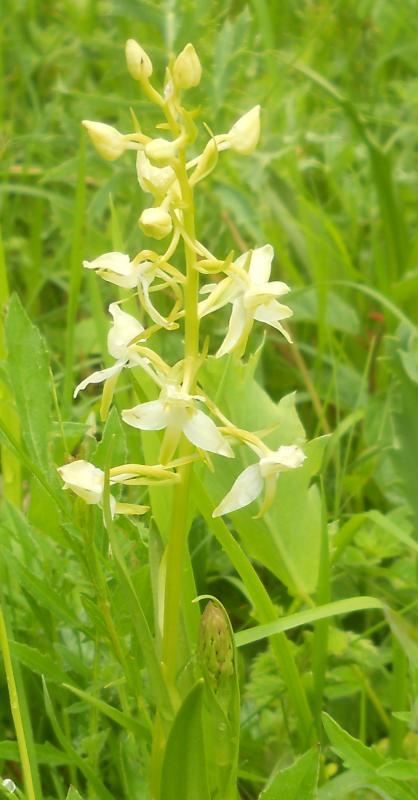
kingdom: Plantae
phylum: Tracheophyta
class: Liliopsida
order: Asparagales
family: Orchidaceae
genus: Platanthera
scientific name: Platanthera chlorantha
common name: Greater butterfly-orchid
